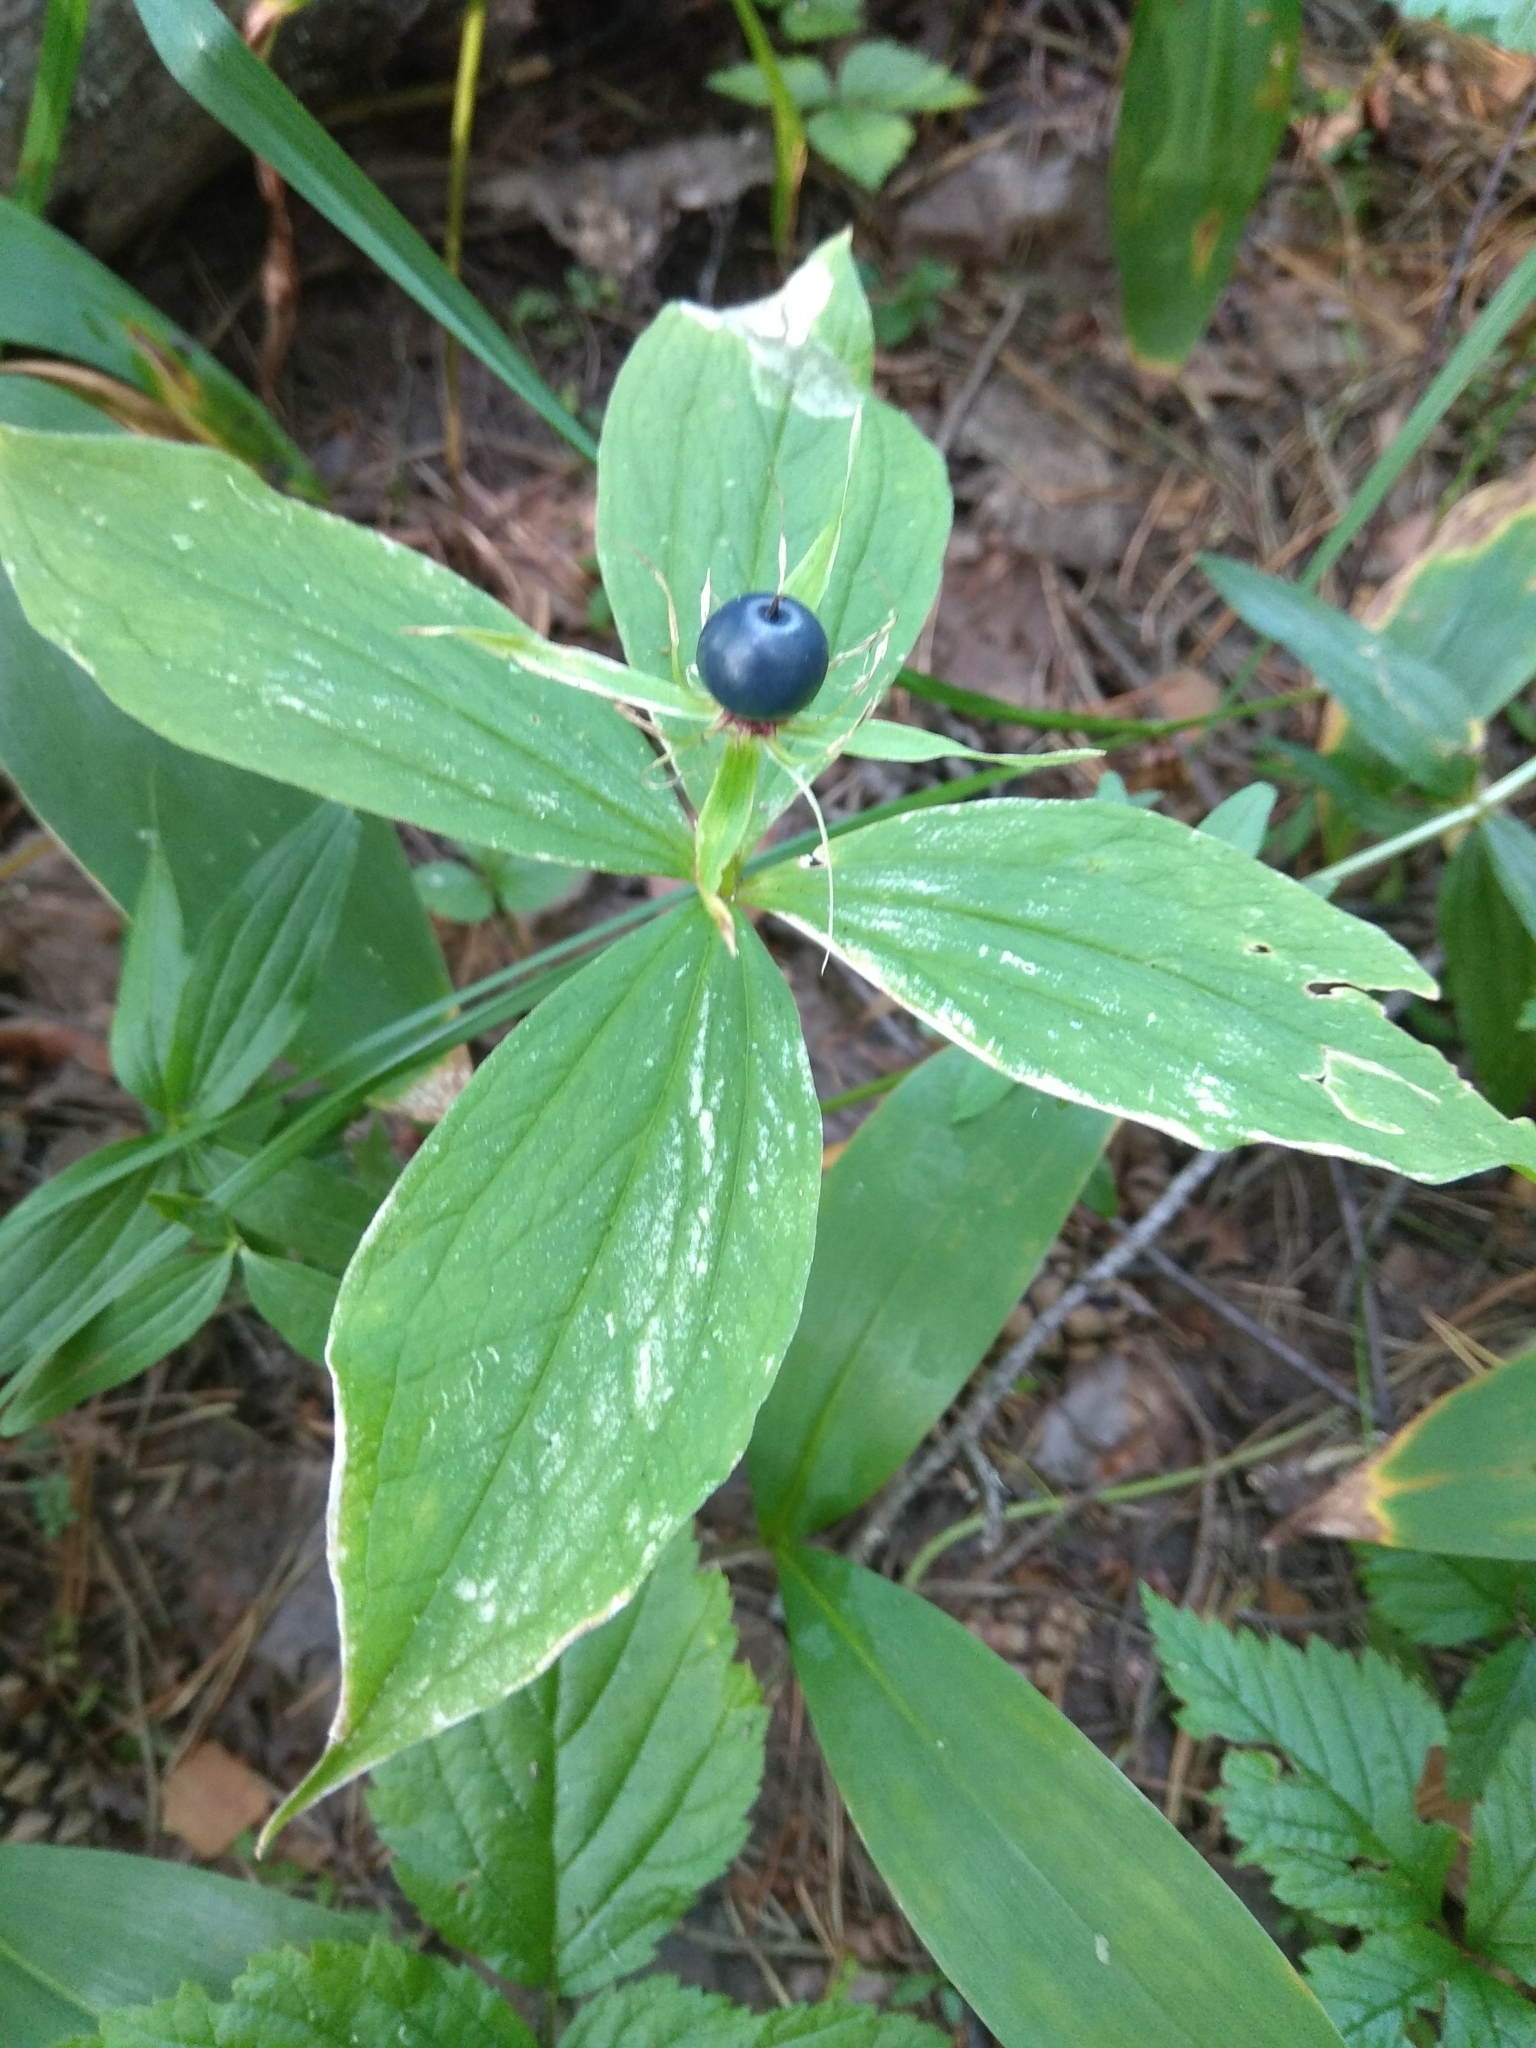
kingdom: Plantae
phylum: Tracheophyta
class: Liliopsida
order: Liliales
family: Melanthiaceae
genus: Paris
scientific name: Paris quadrifolia
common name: Herb-paris
